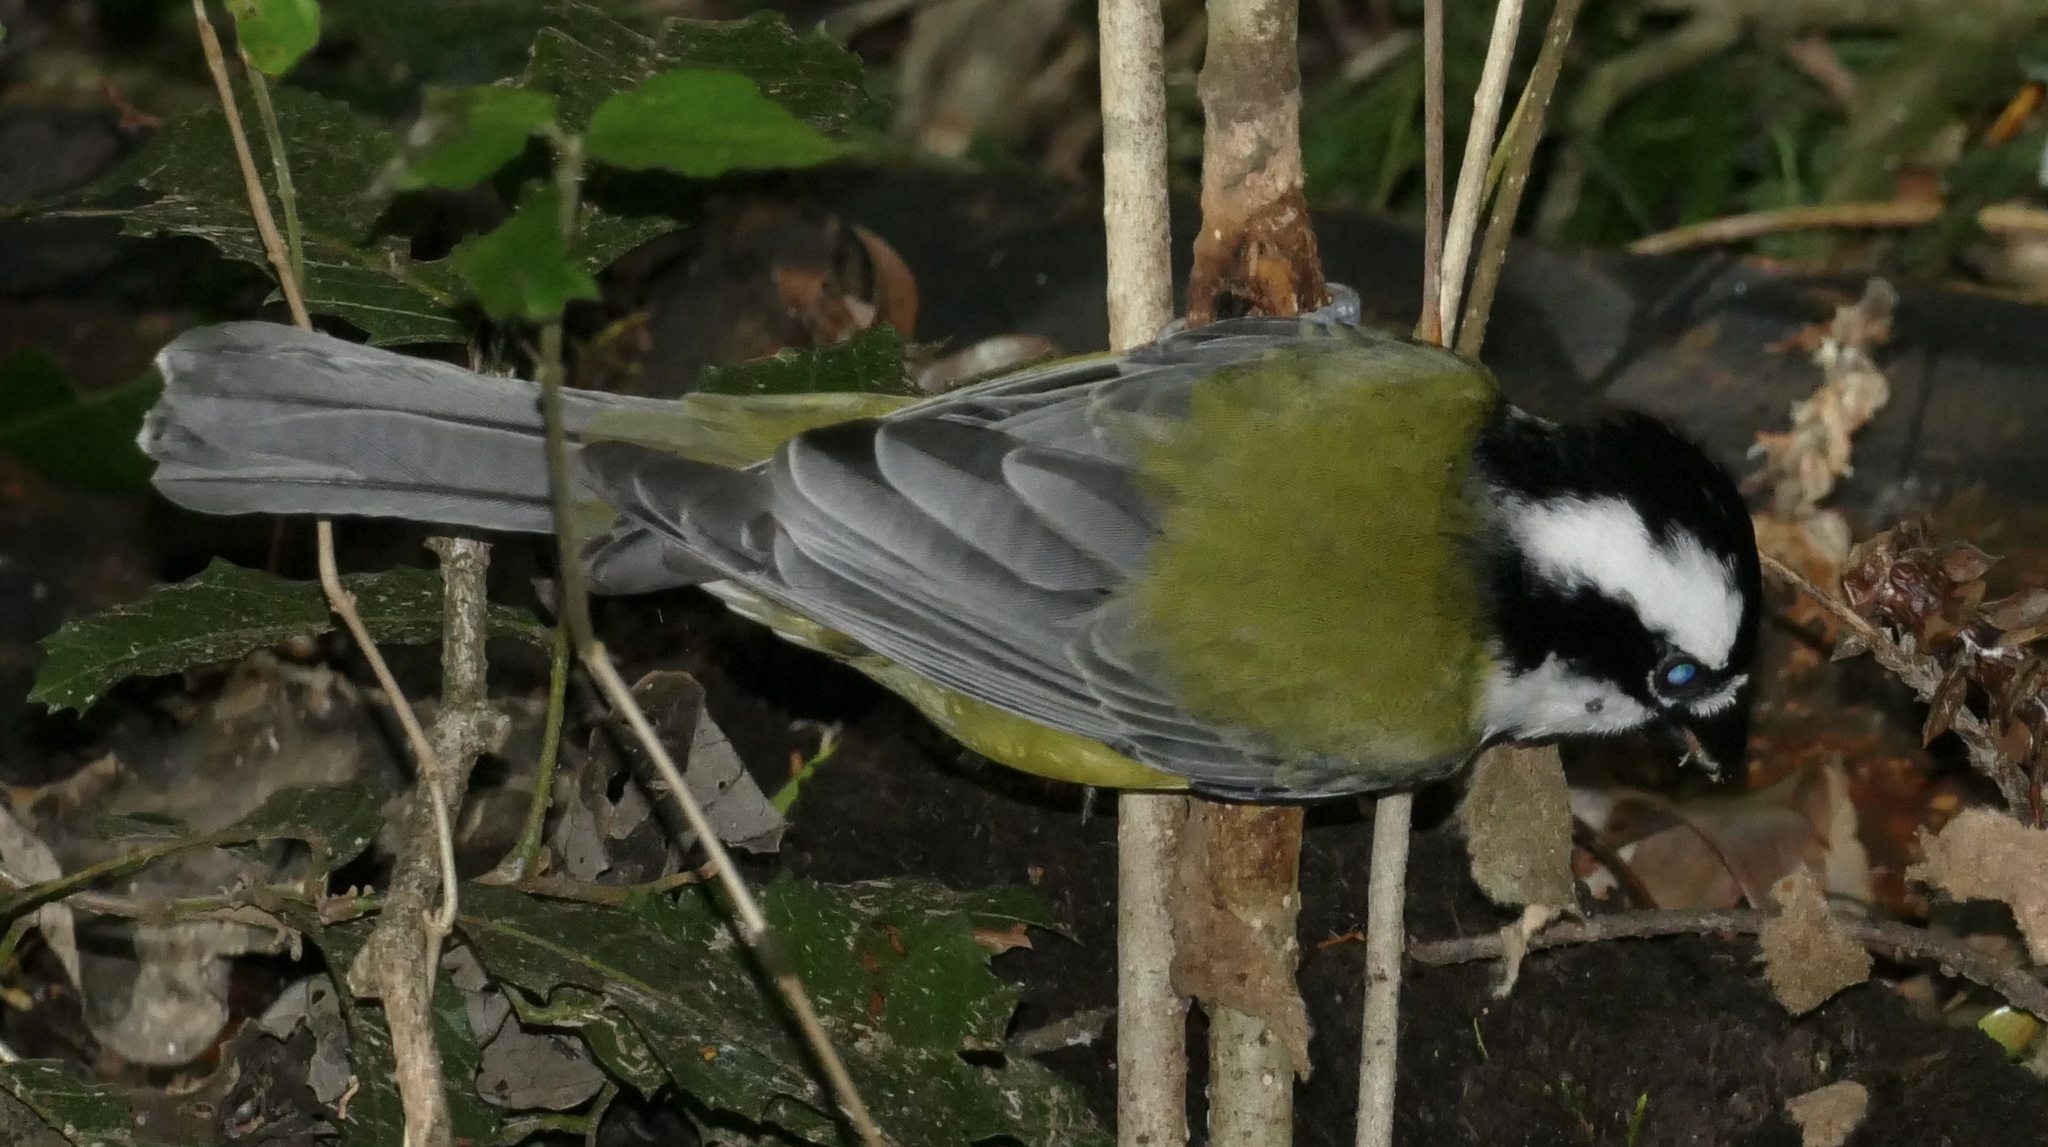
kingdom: Animalia
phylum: Chordata
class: Aves
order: Passeriformes
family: Pachycephalidae
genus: Falcunculus
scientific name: Falcunculus frontatus
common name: Crested shriketit
